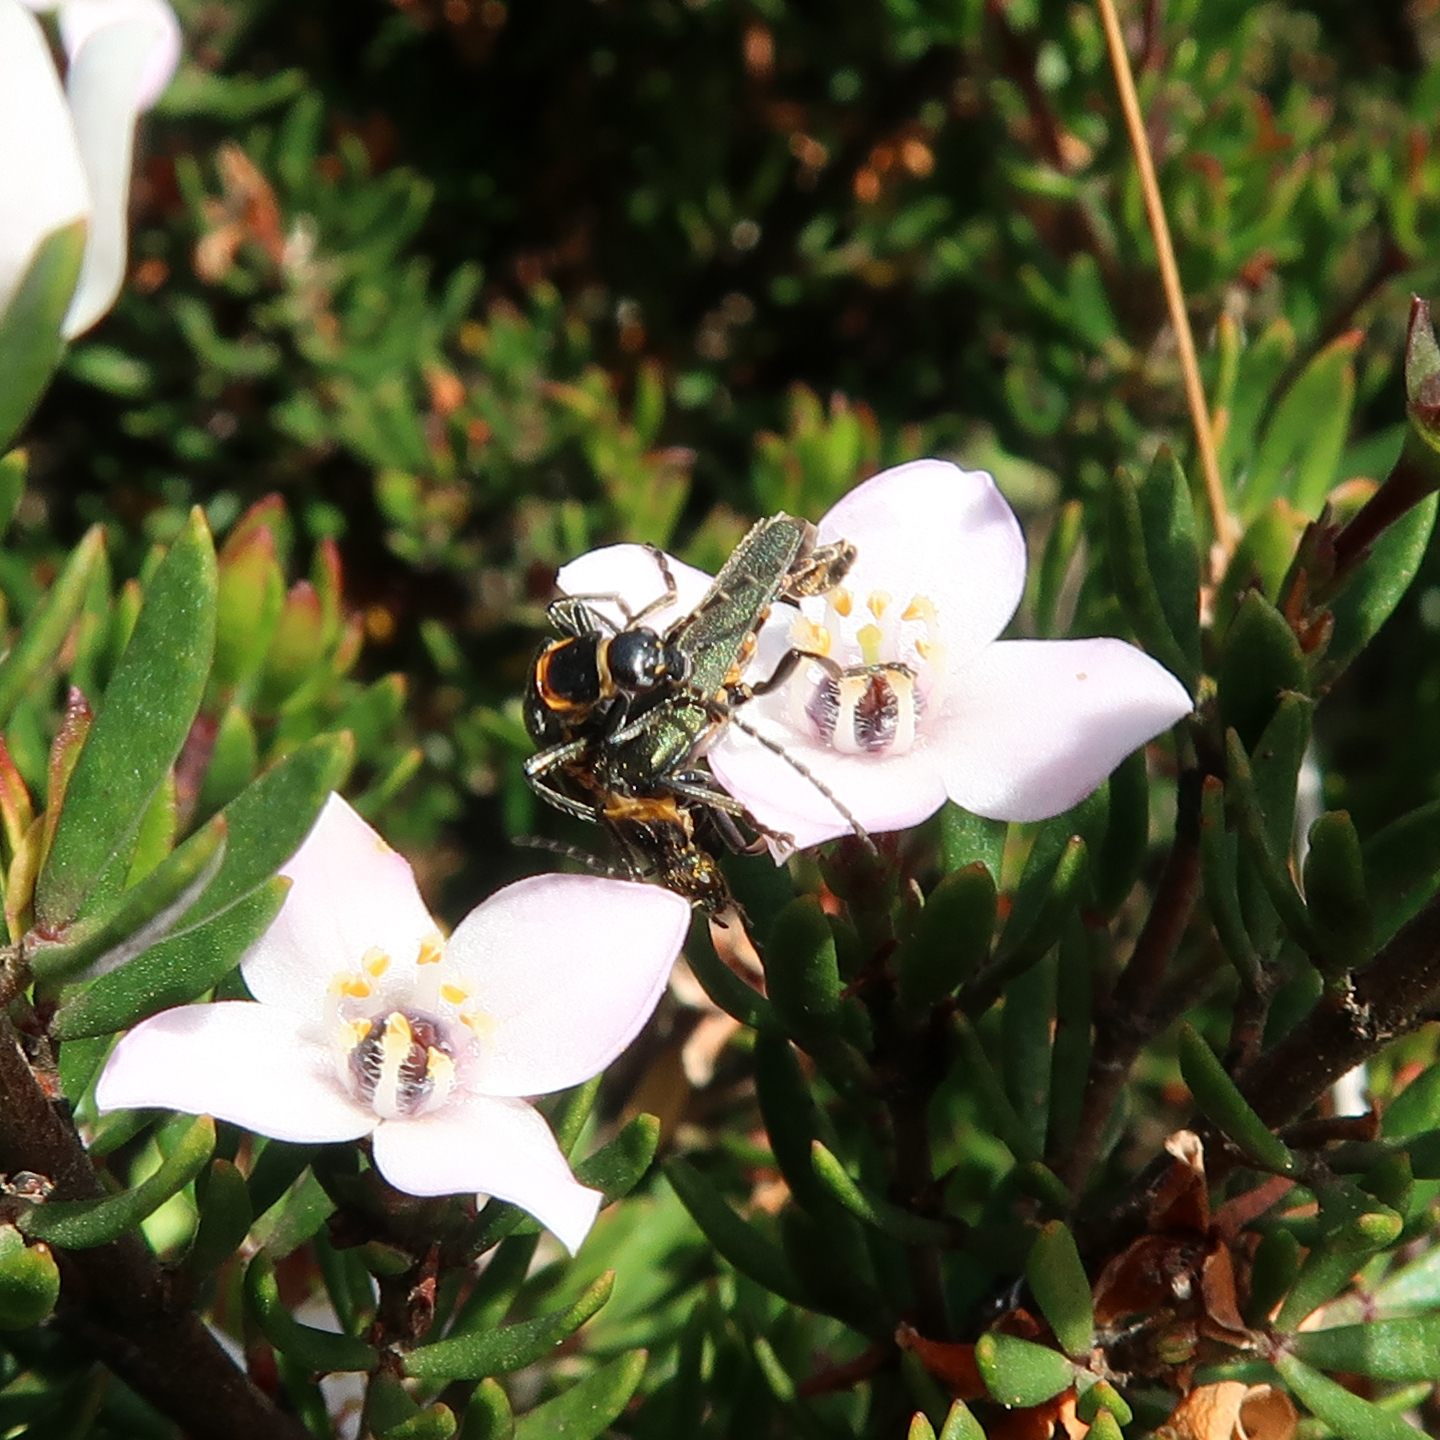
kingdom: Animalia
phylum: Arthropoda
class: Insecta
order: Coleoptera
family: Cantharidae
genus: Chauliognathus
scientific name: Chauliognathus
